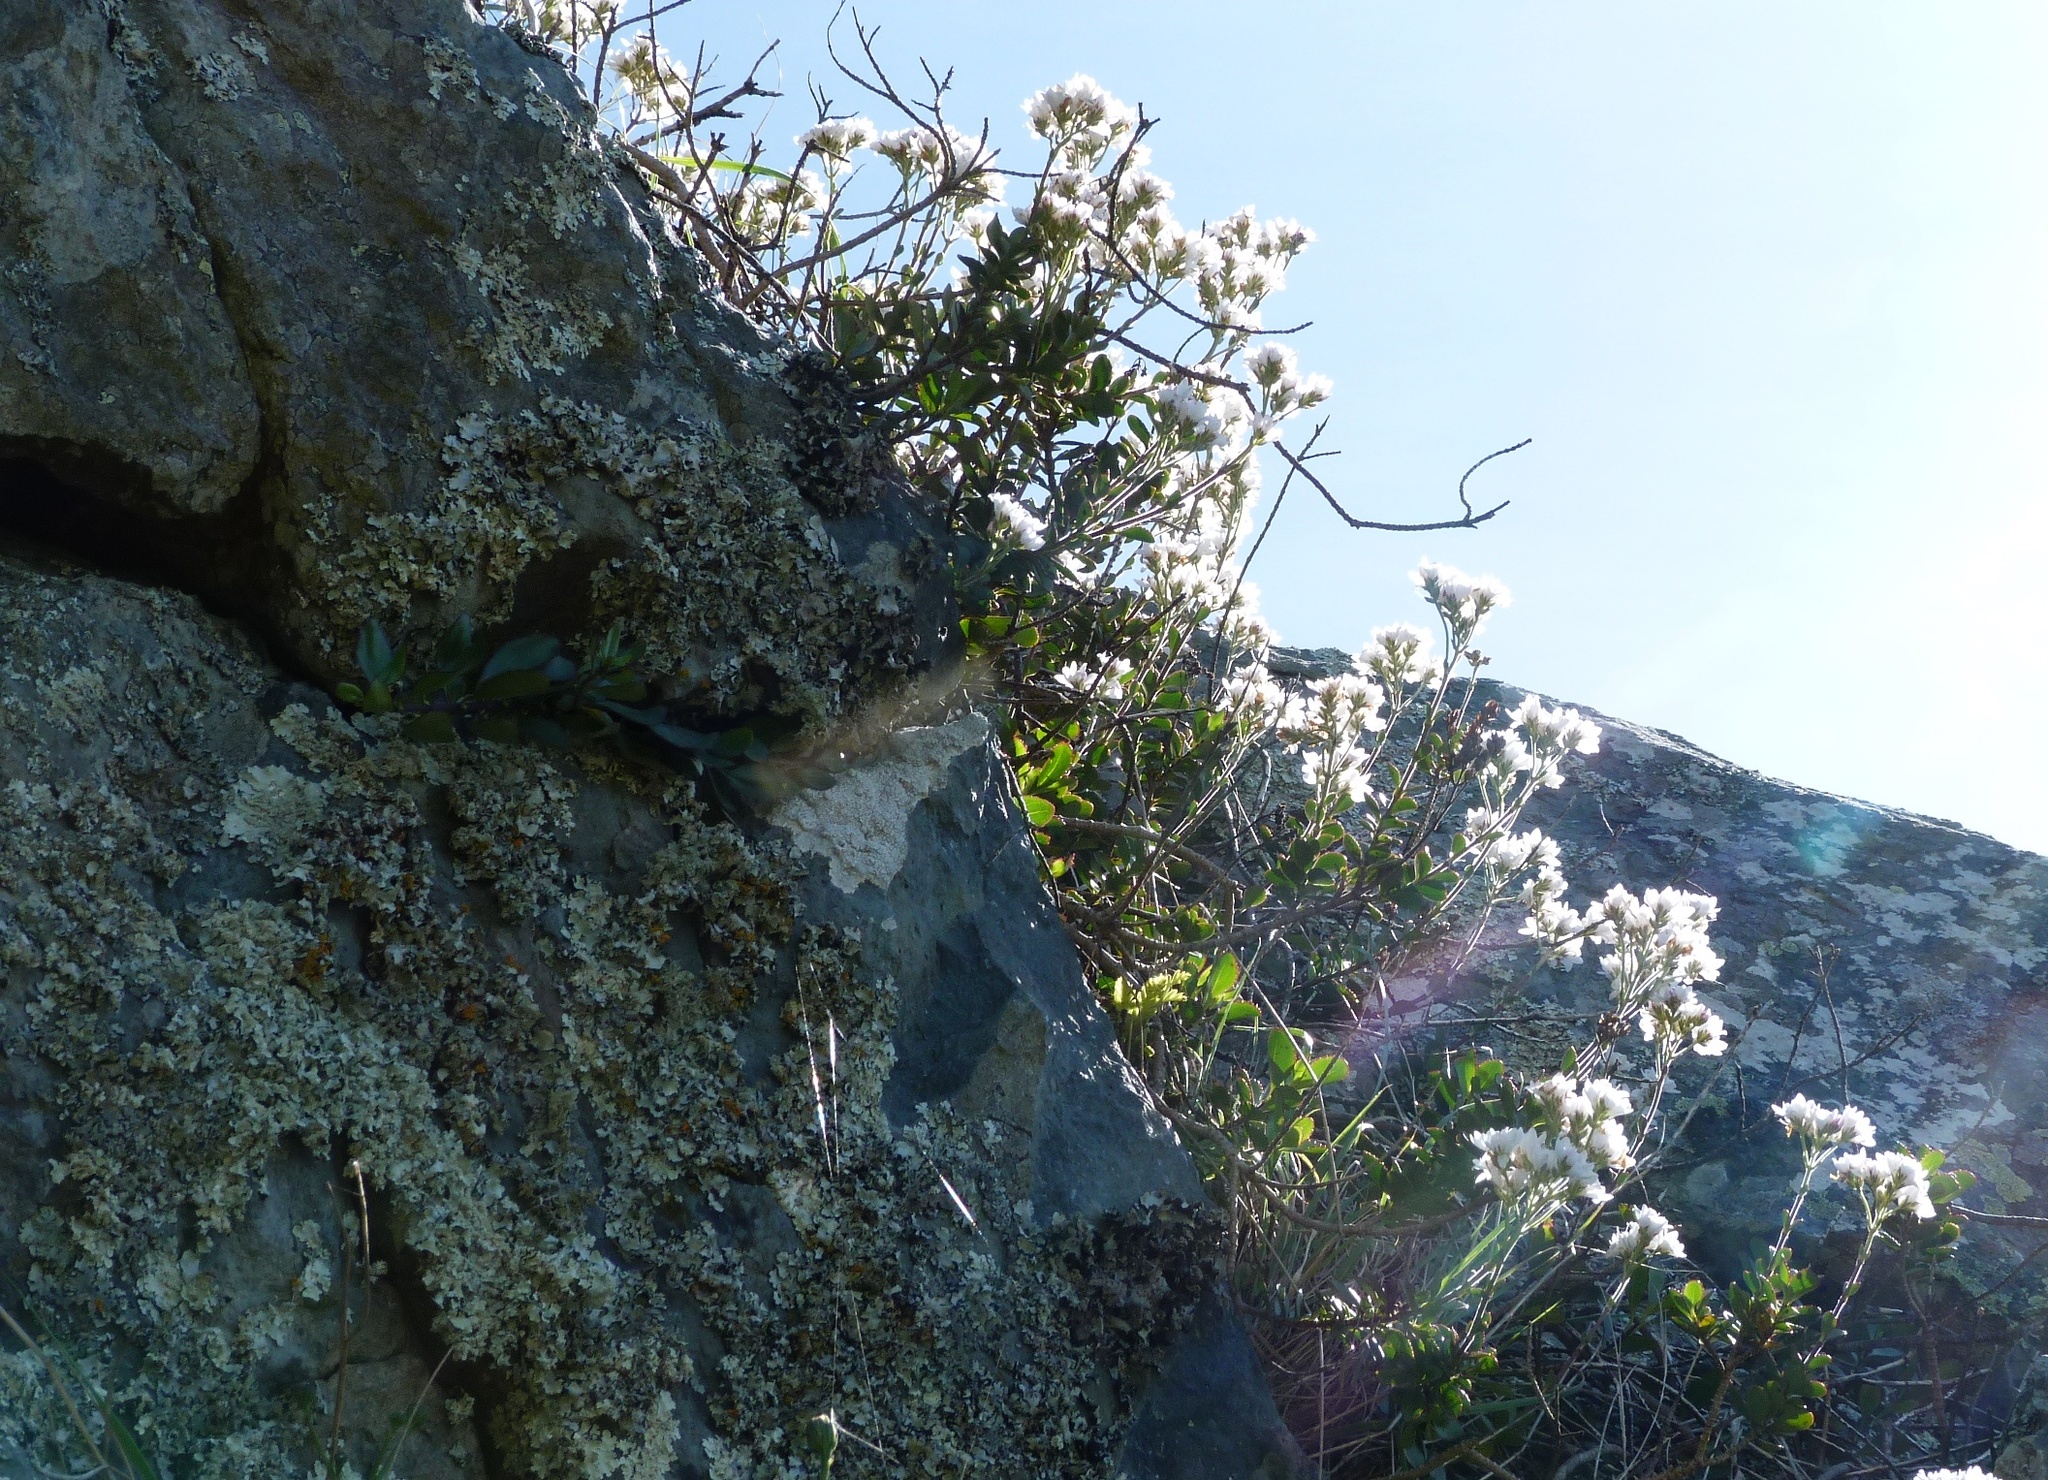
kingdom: Plantae
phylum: Tracheophyta
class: Magnoliopsida
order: Lamiales
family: Plantaginaceae
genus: Veronica
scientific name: Veronica lavaudiana
